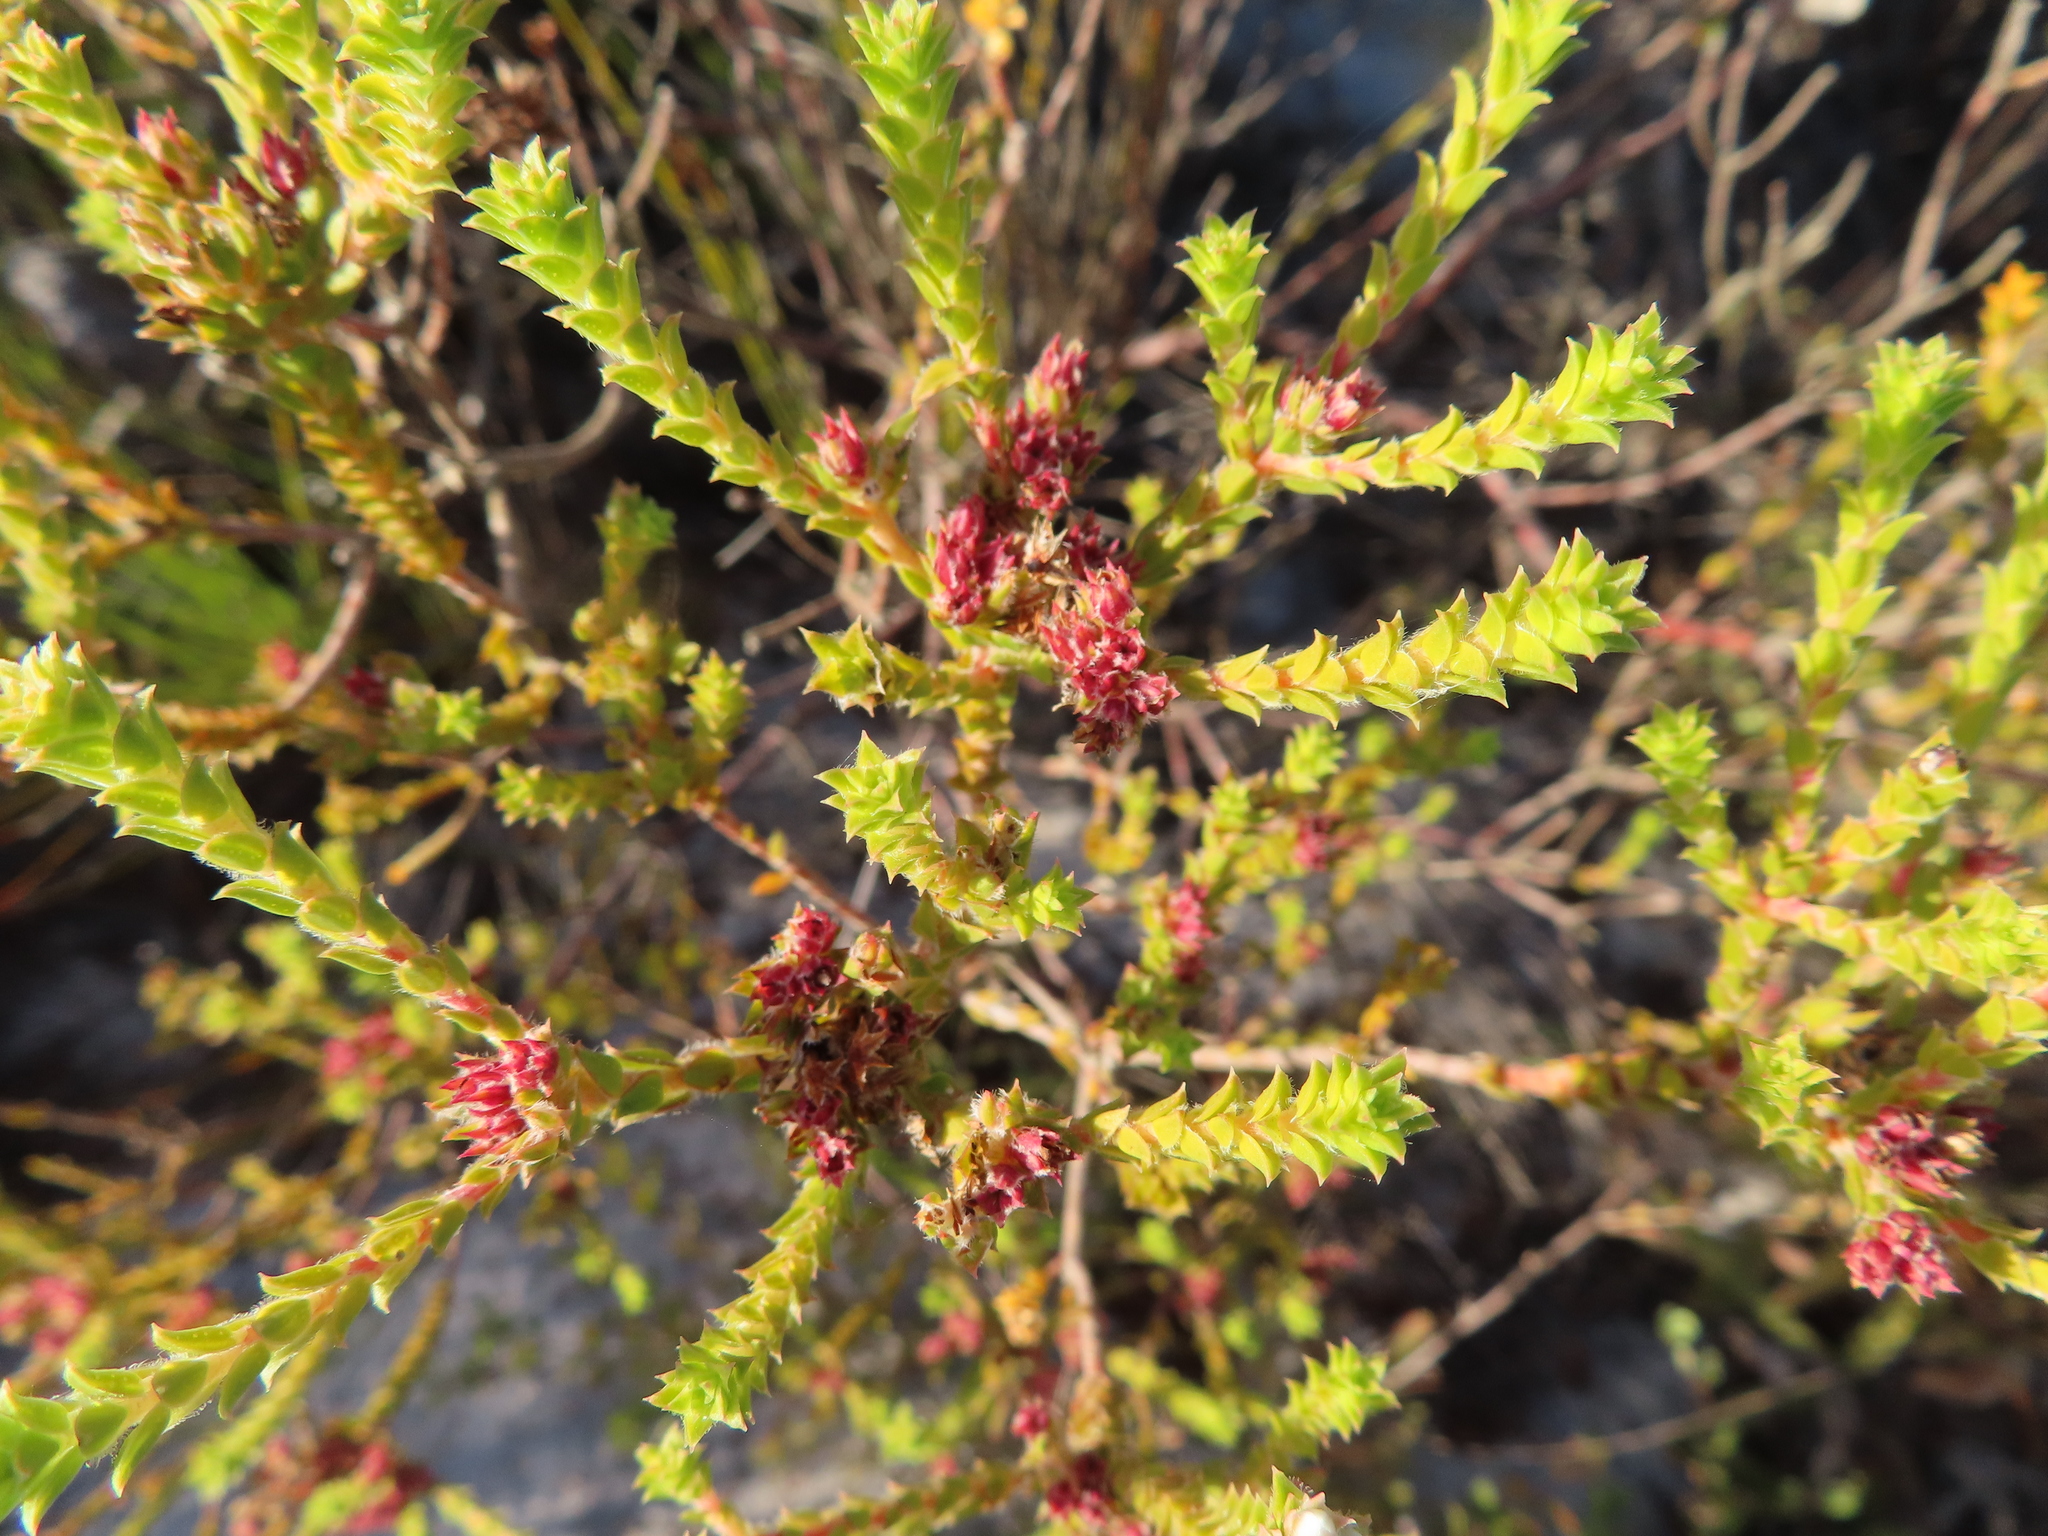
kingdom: Plantae
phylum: Tracheophyta
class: Magnoliopsida
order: Sapindales
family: Rutaceae
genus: Diosma
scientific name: Diosma haelkraalensis
